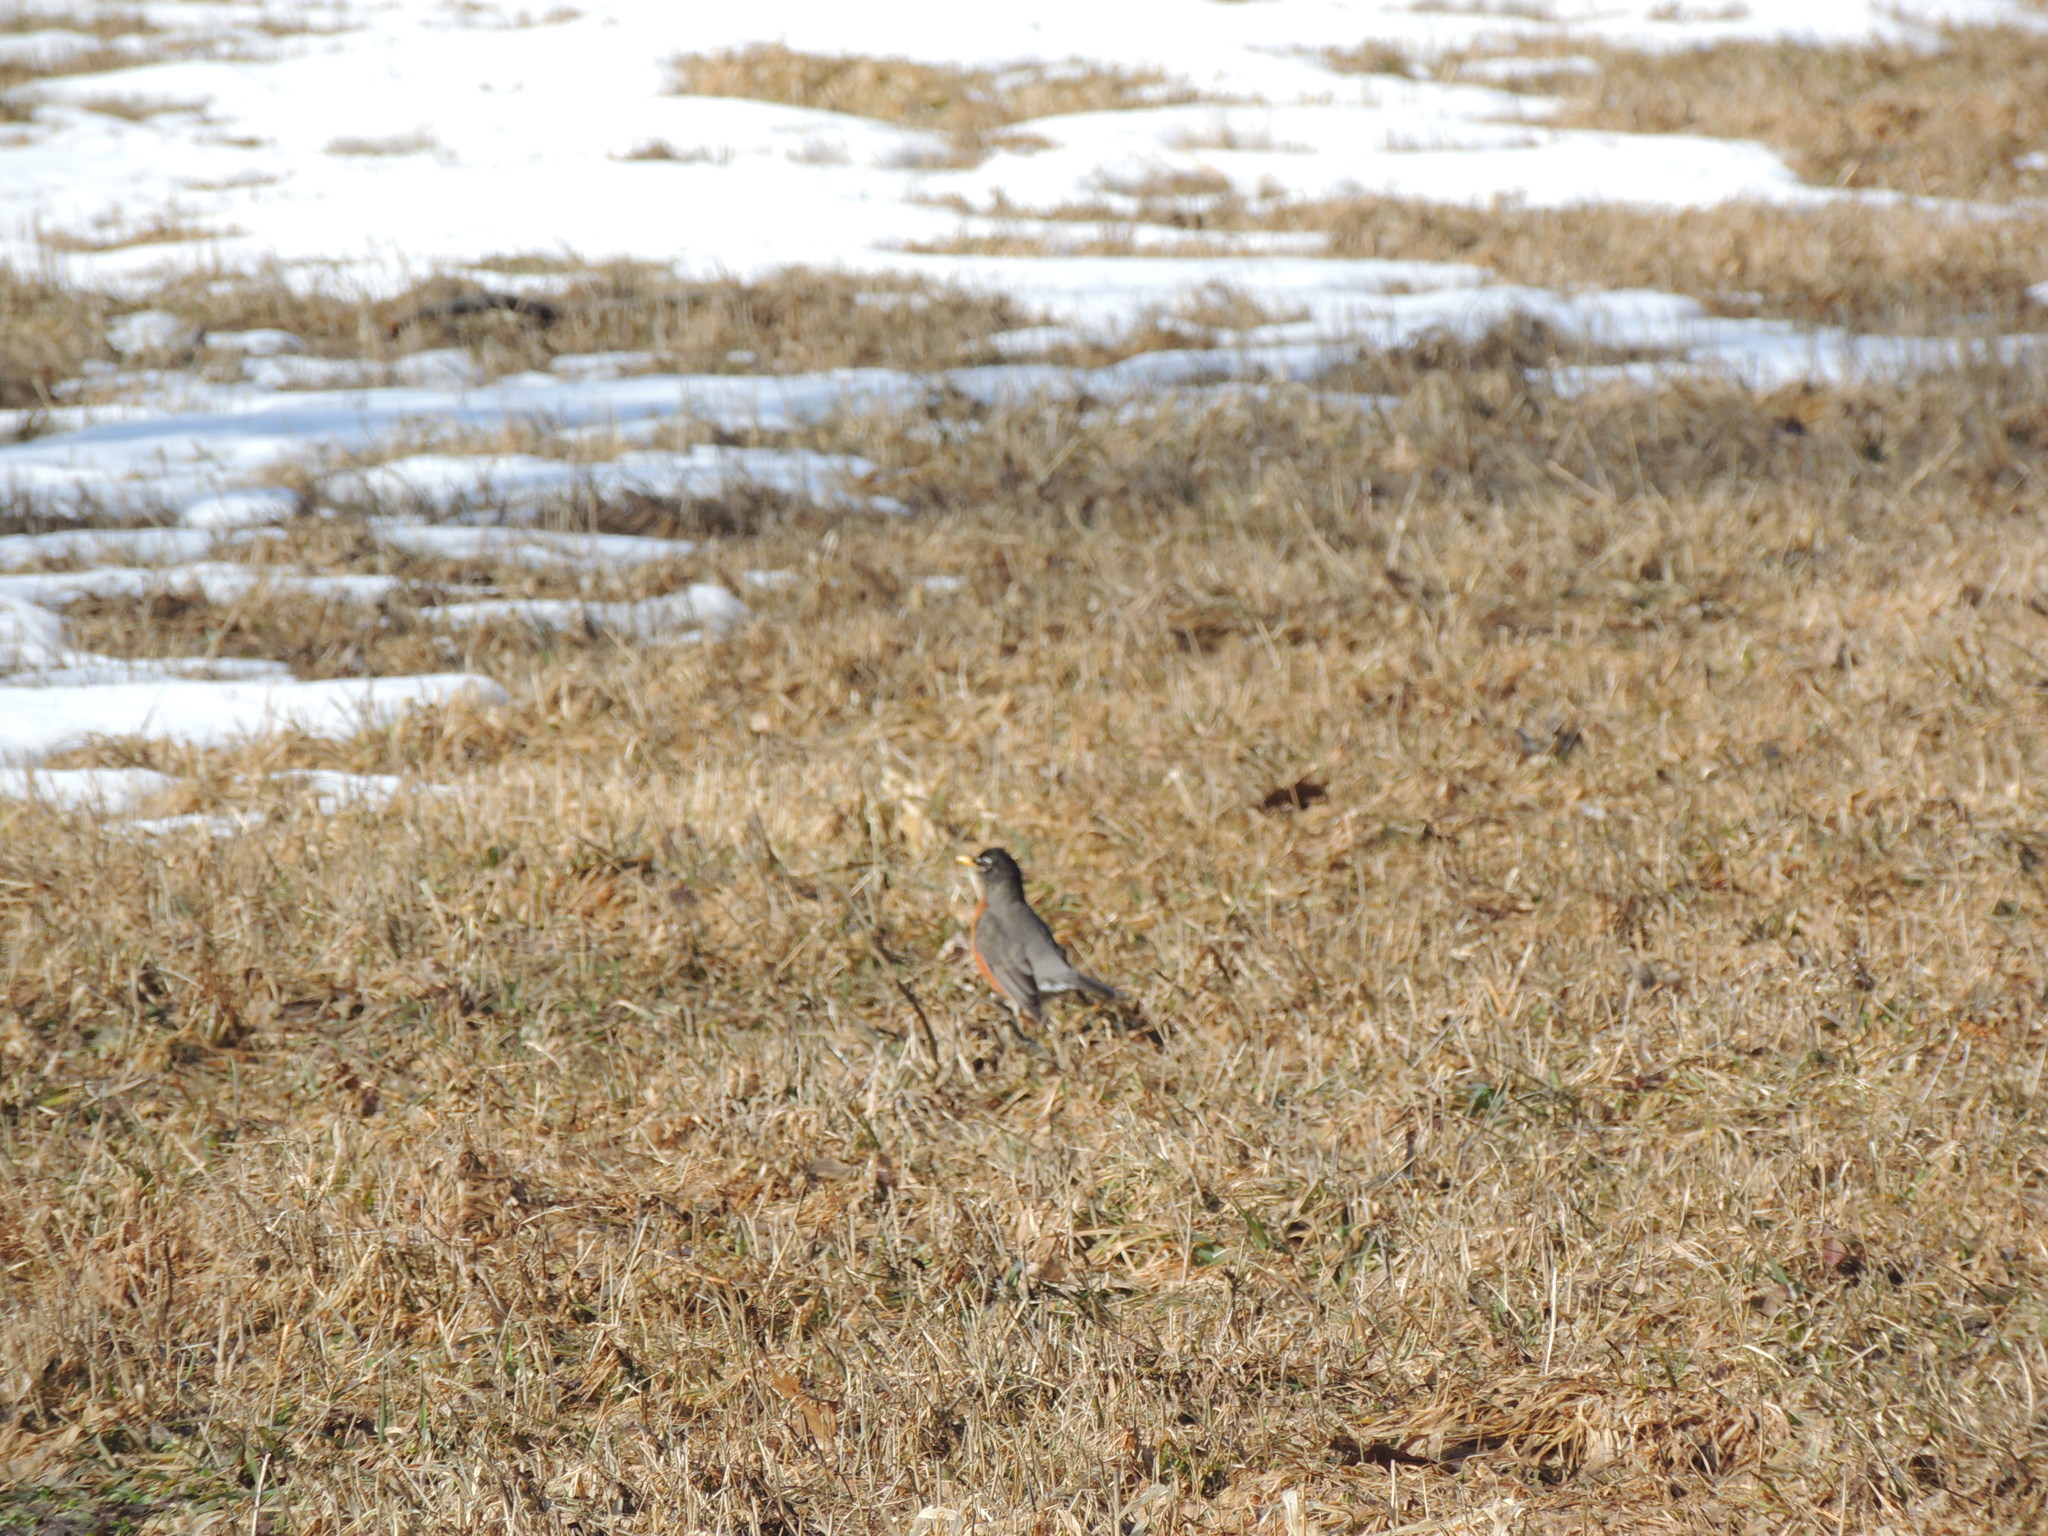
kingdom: Animalia
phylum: Chordata
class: Aves
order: Passeriformes
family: Turdidae
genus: Turdus
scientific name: Turdus migratorius
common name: American robin
